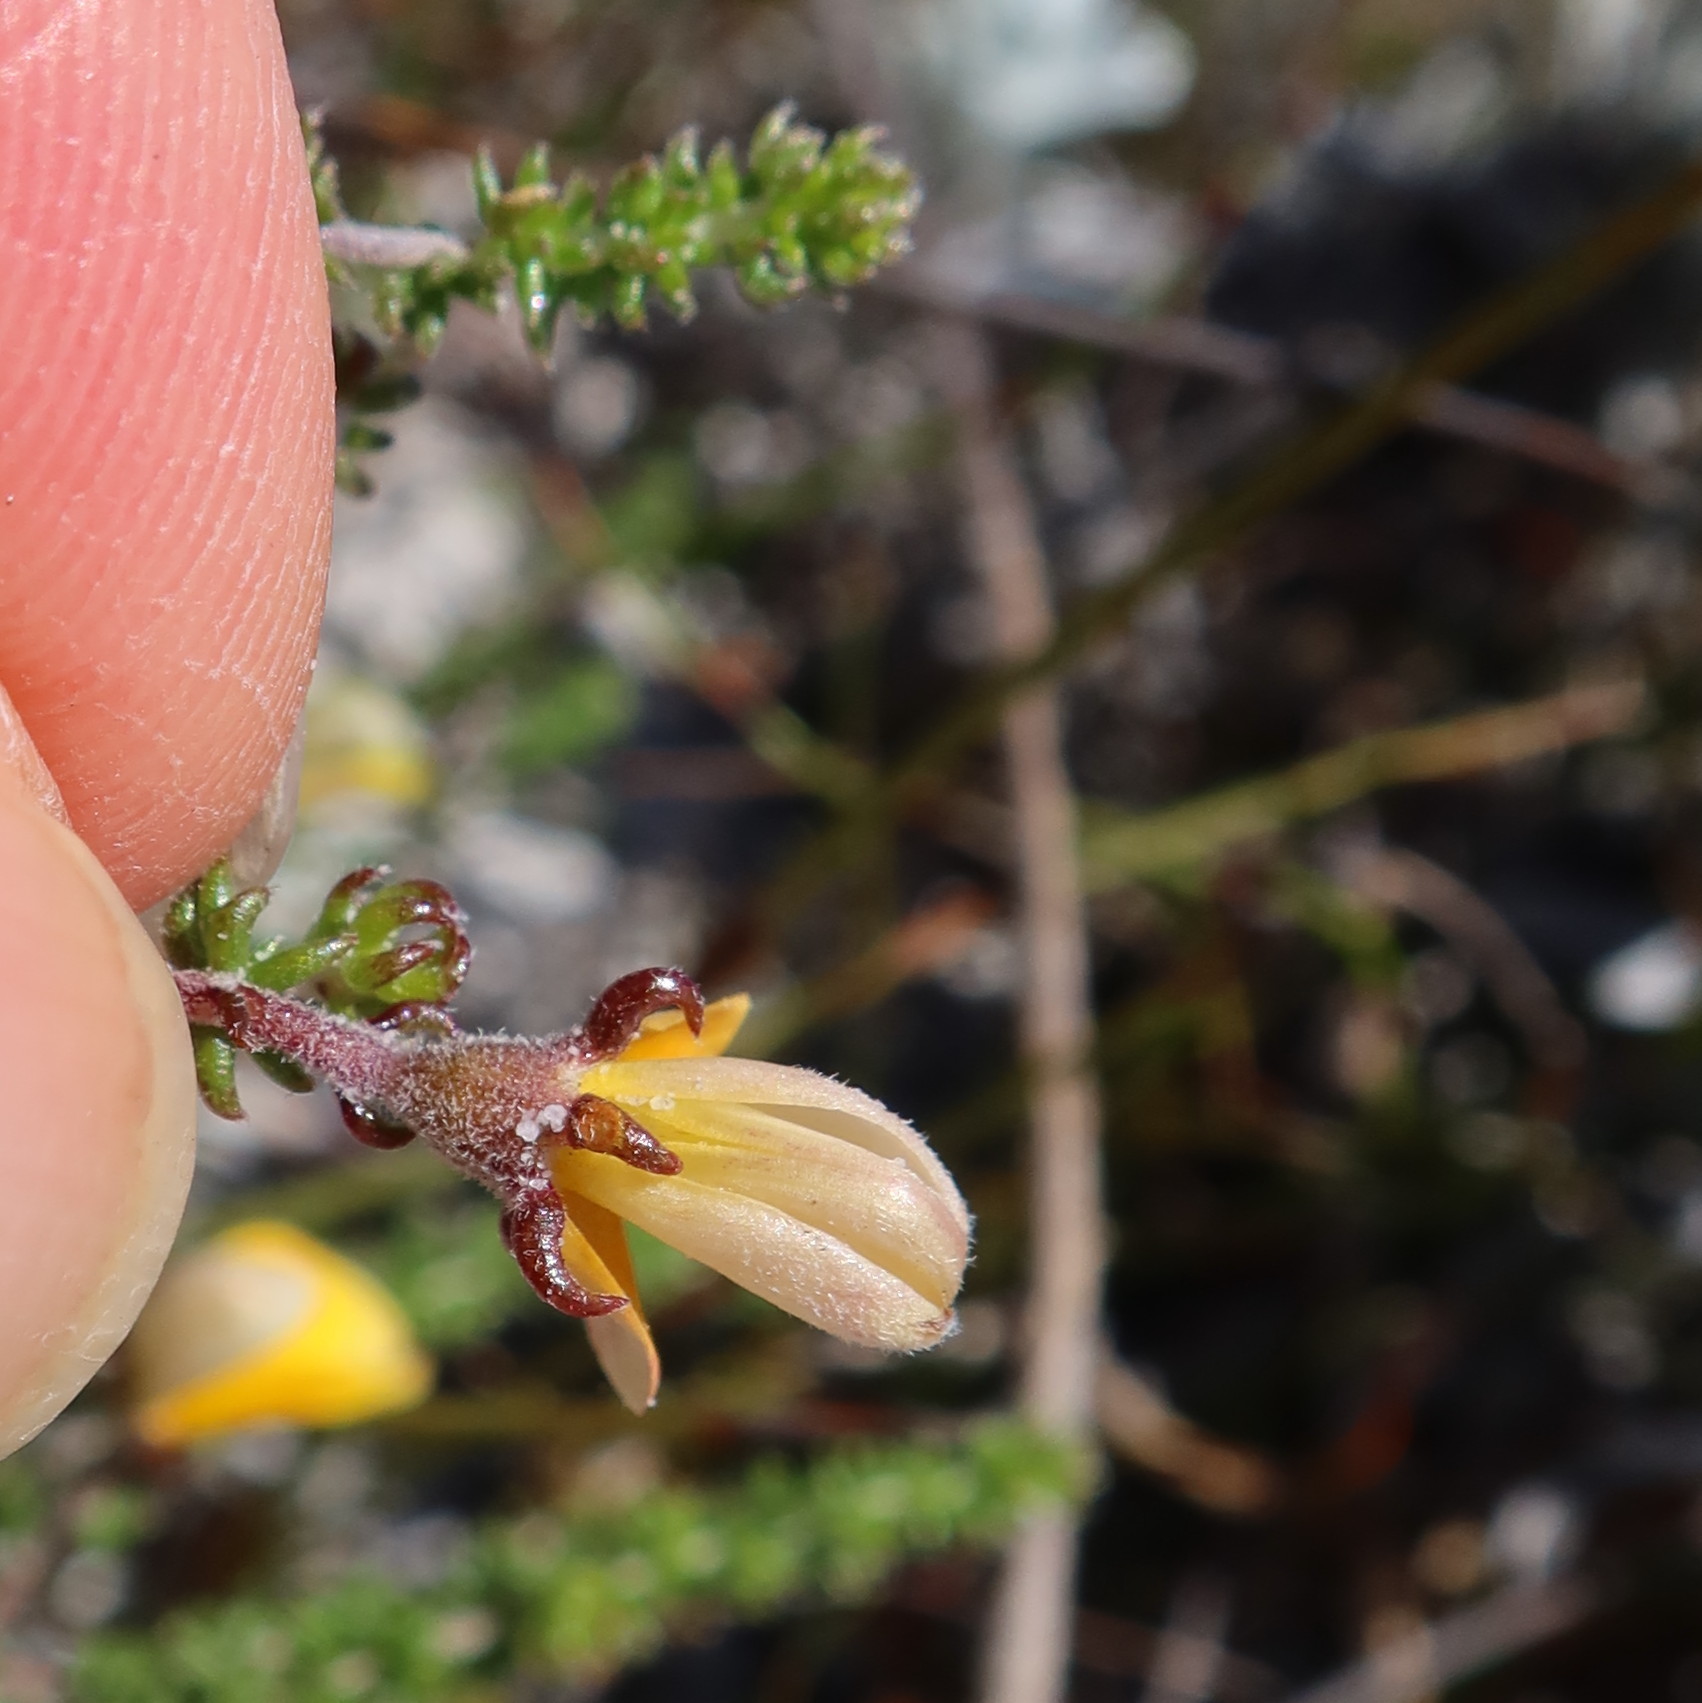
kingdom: Plantae
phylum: Tracheophyta
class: Magnoliopsida
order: Fabales
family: Fabaceae
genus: Aspalathus
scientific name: Aspalathus juniperina
